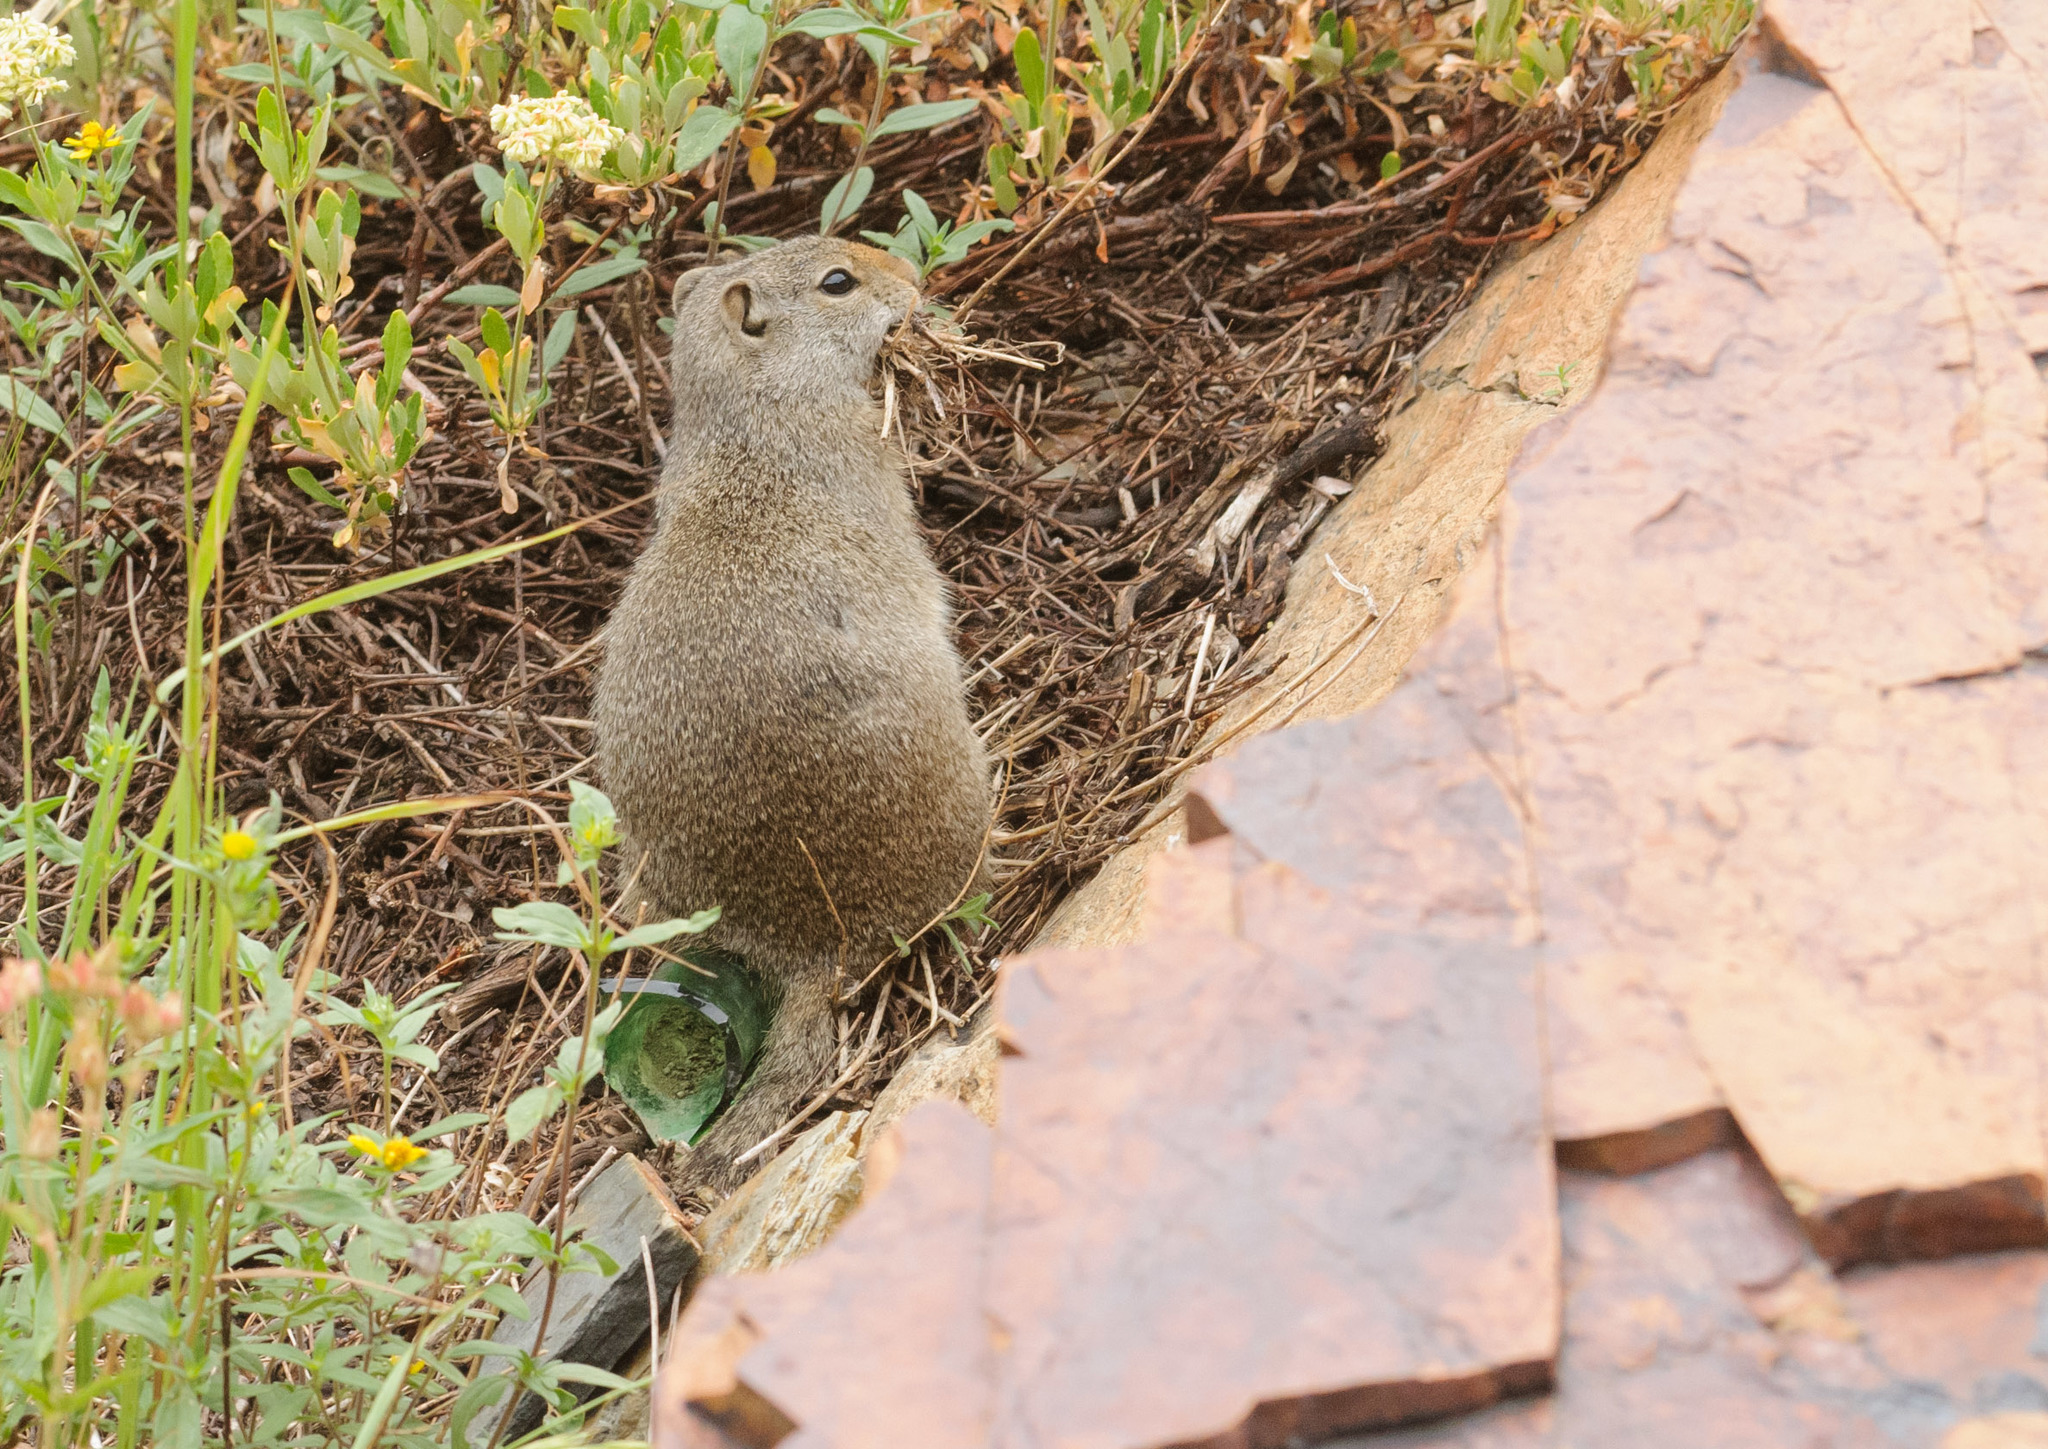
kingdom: Animalia
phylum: Chordata
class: Mammalia
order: Rodentia
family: Sciuridae
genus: Urocitellus
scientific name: Urocitellus armatus
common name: Uinta ground squirrel
